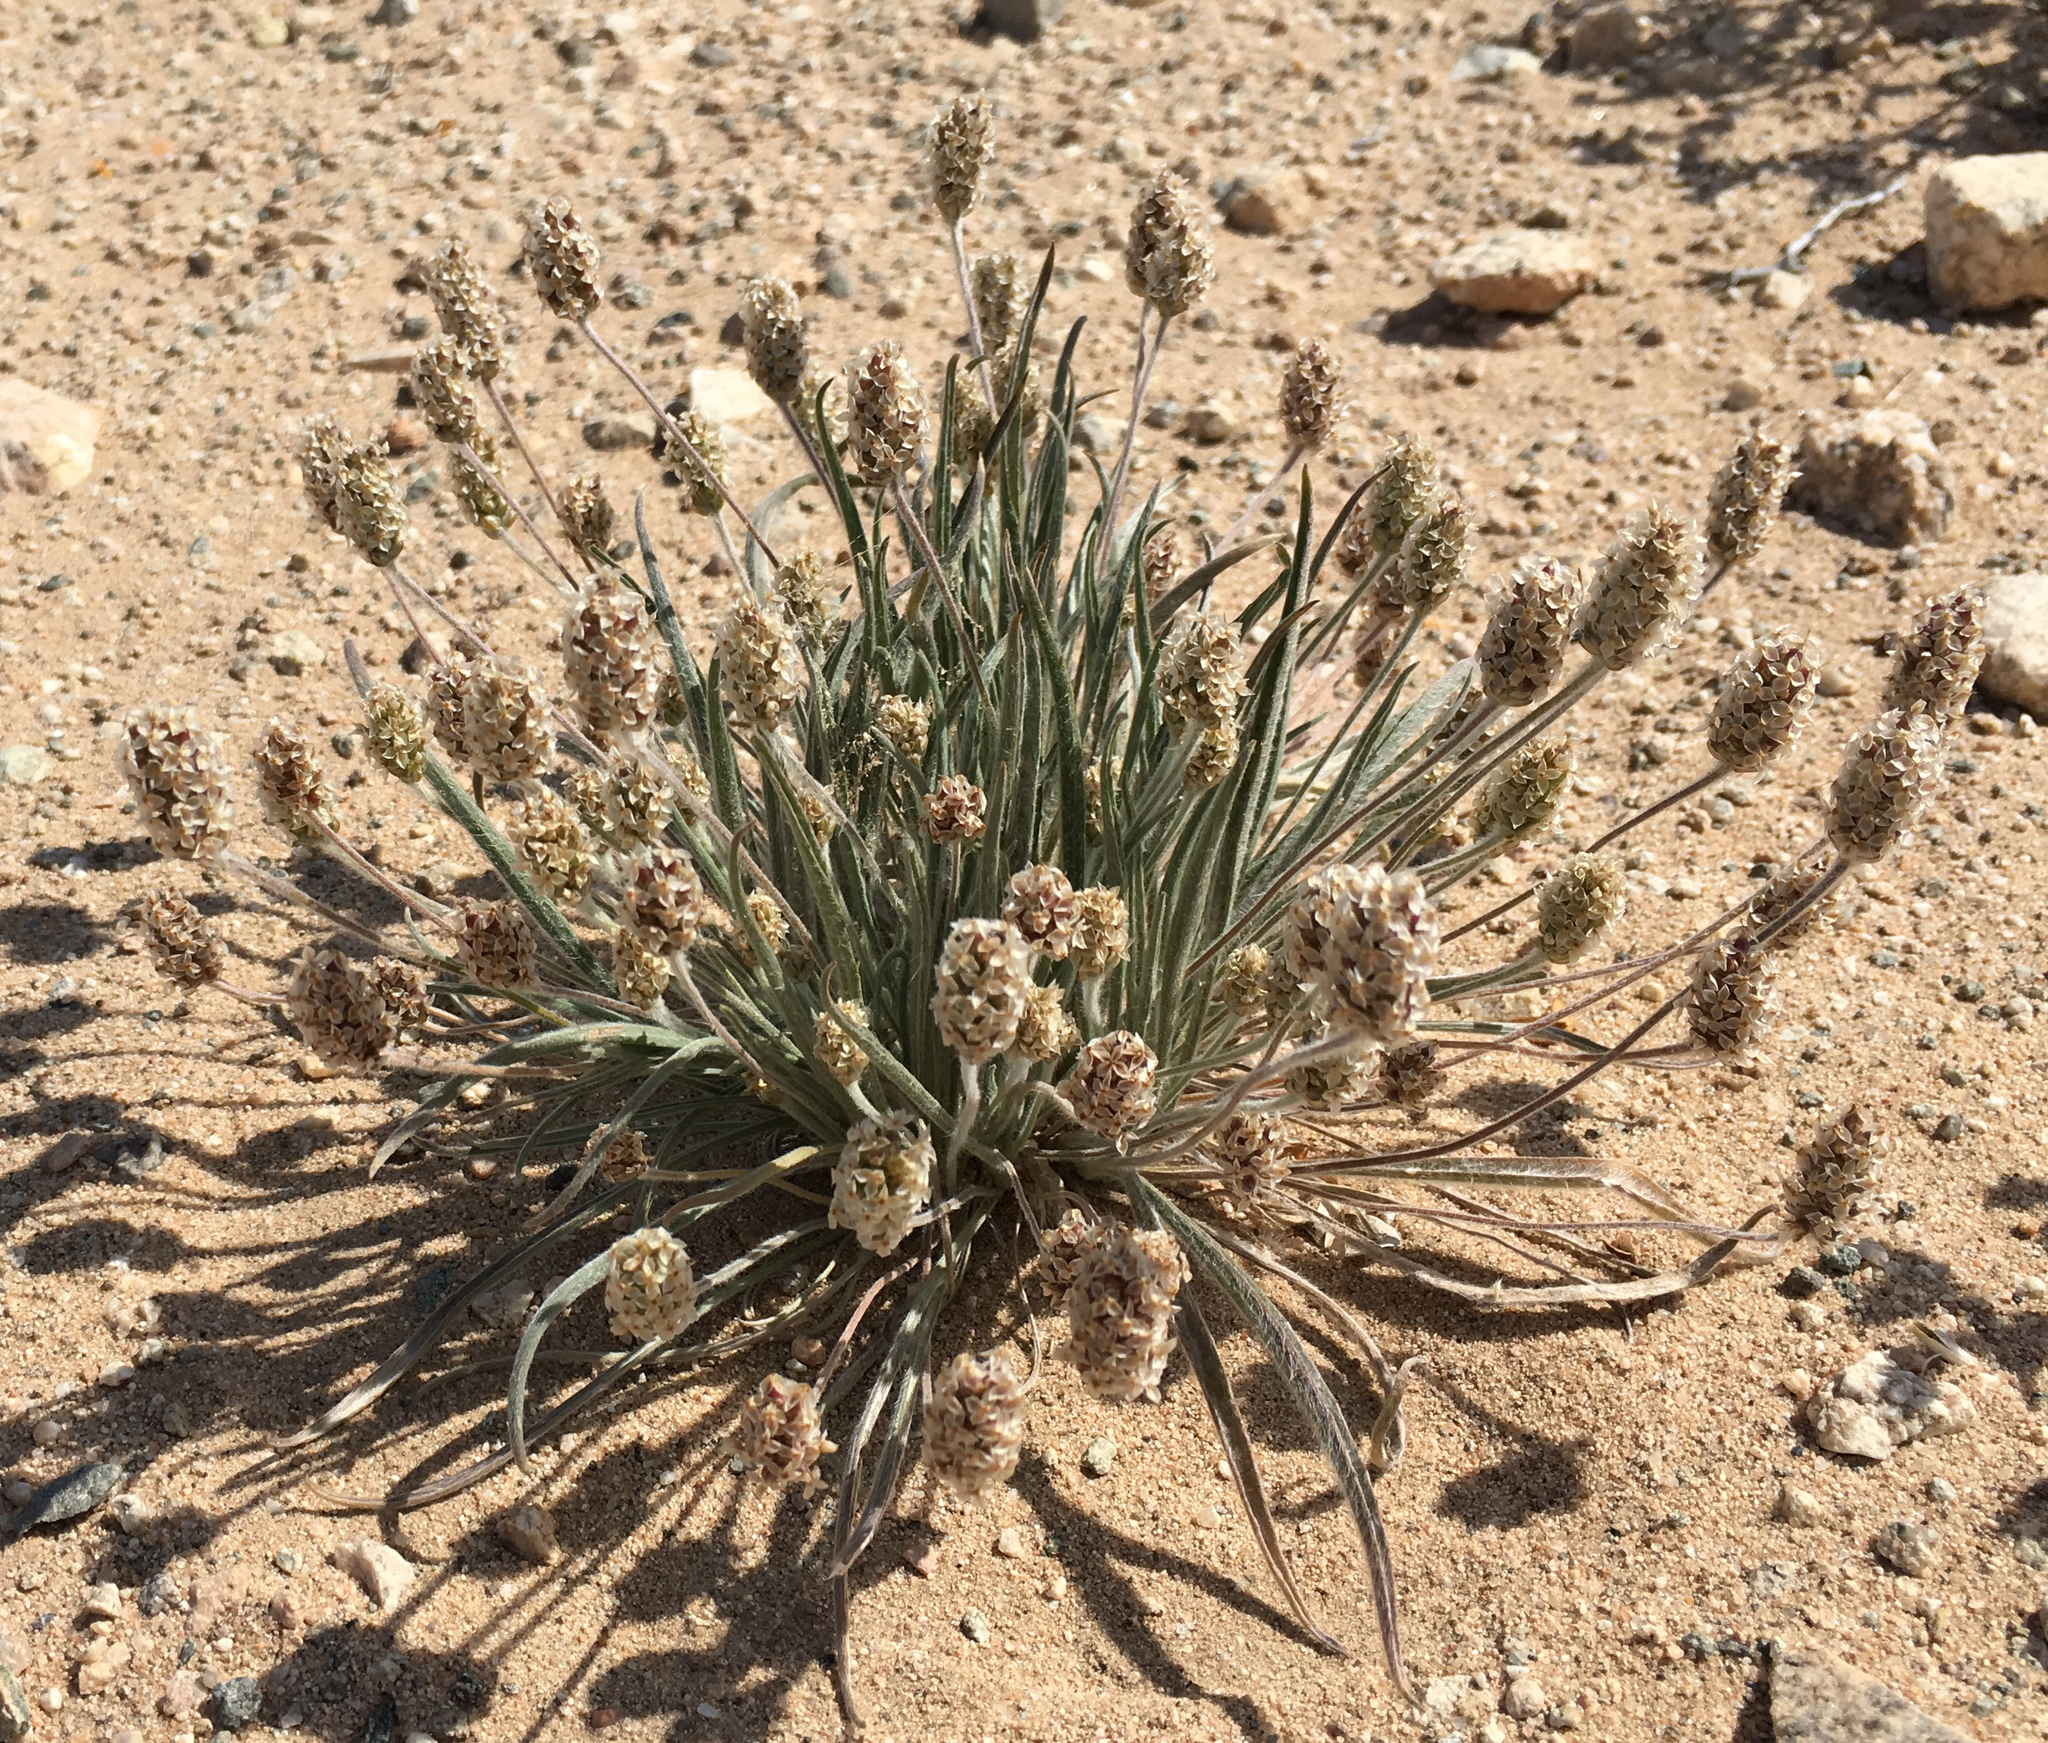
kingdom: Plantae
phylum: Tracheophyta
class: Magnoliopsida
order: Lamiales
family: Plantaginaceae
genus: Plantago
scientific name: Plantago ovata
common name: Blond plantain
